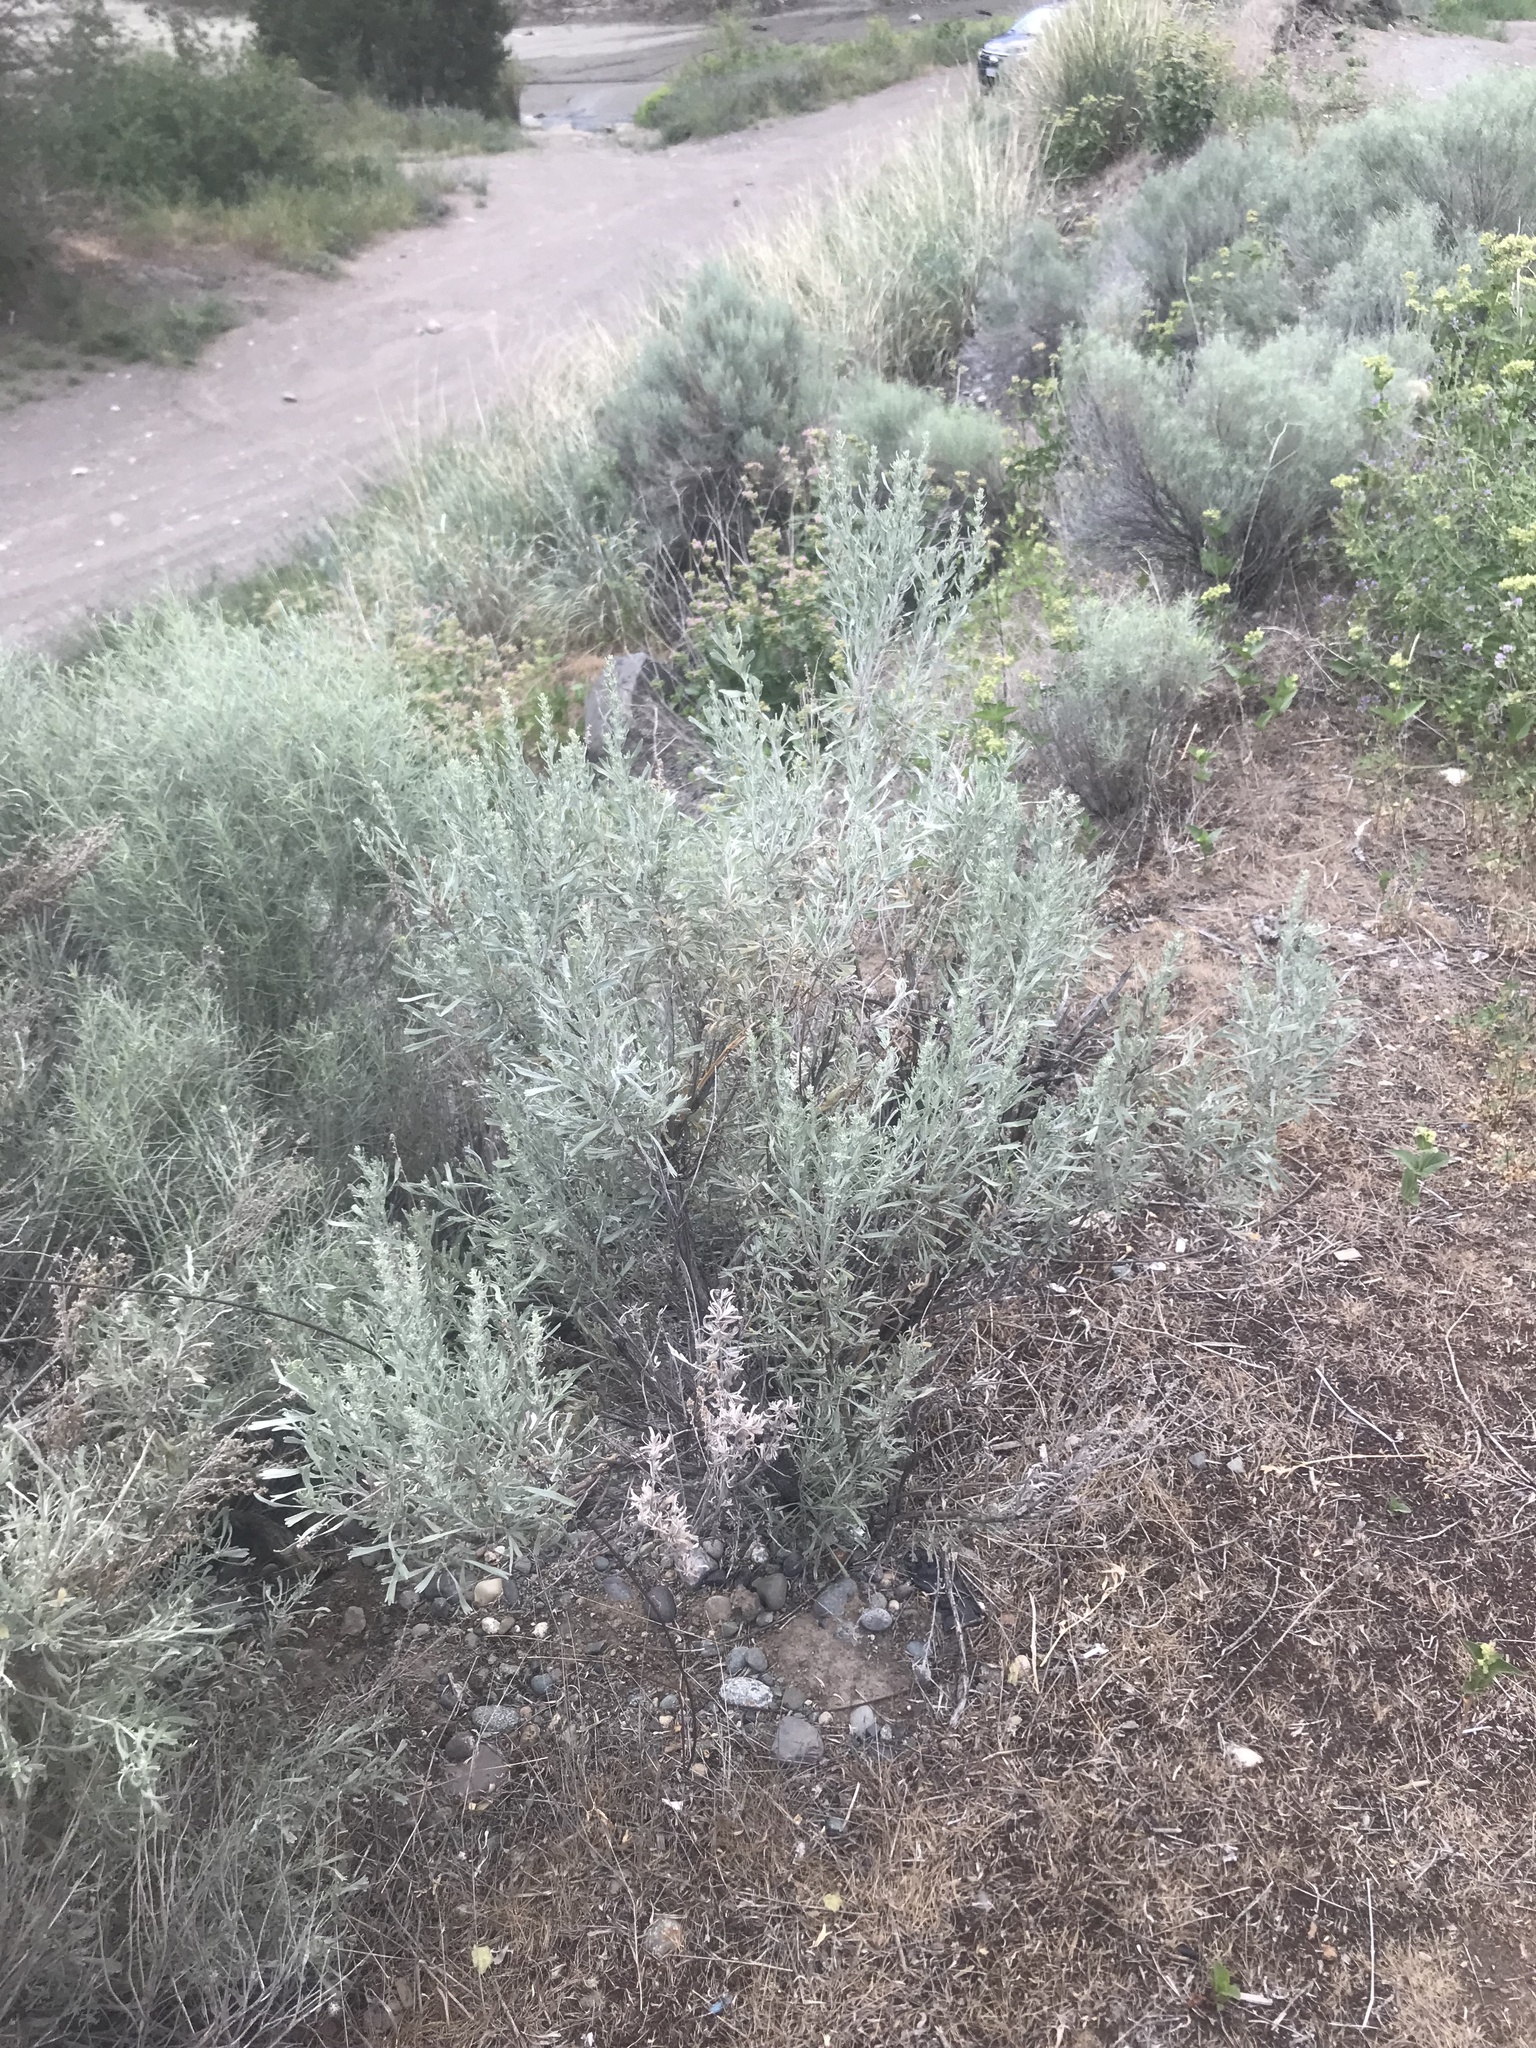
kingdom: Plantae
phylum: Tracheophyta
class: Magnoliopsida
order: Asterales
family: Asteraceae
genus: Artemisia
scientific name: Artemisia tridentata
